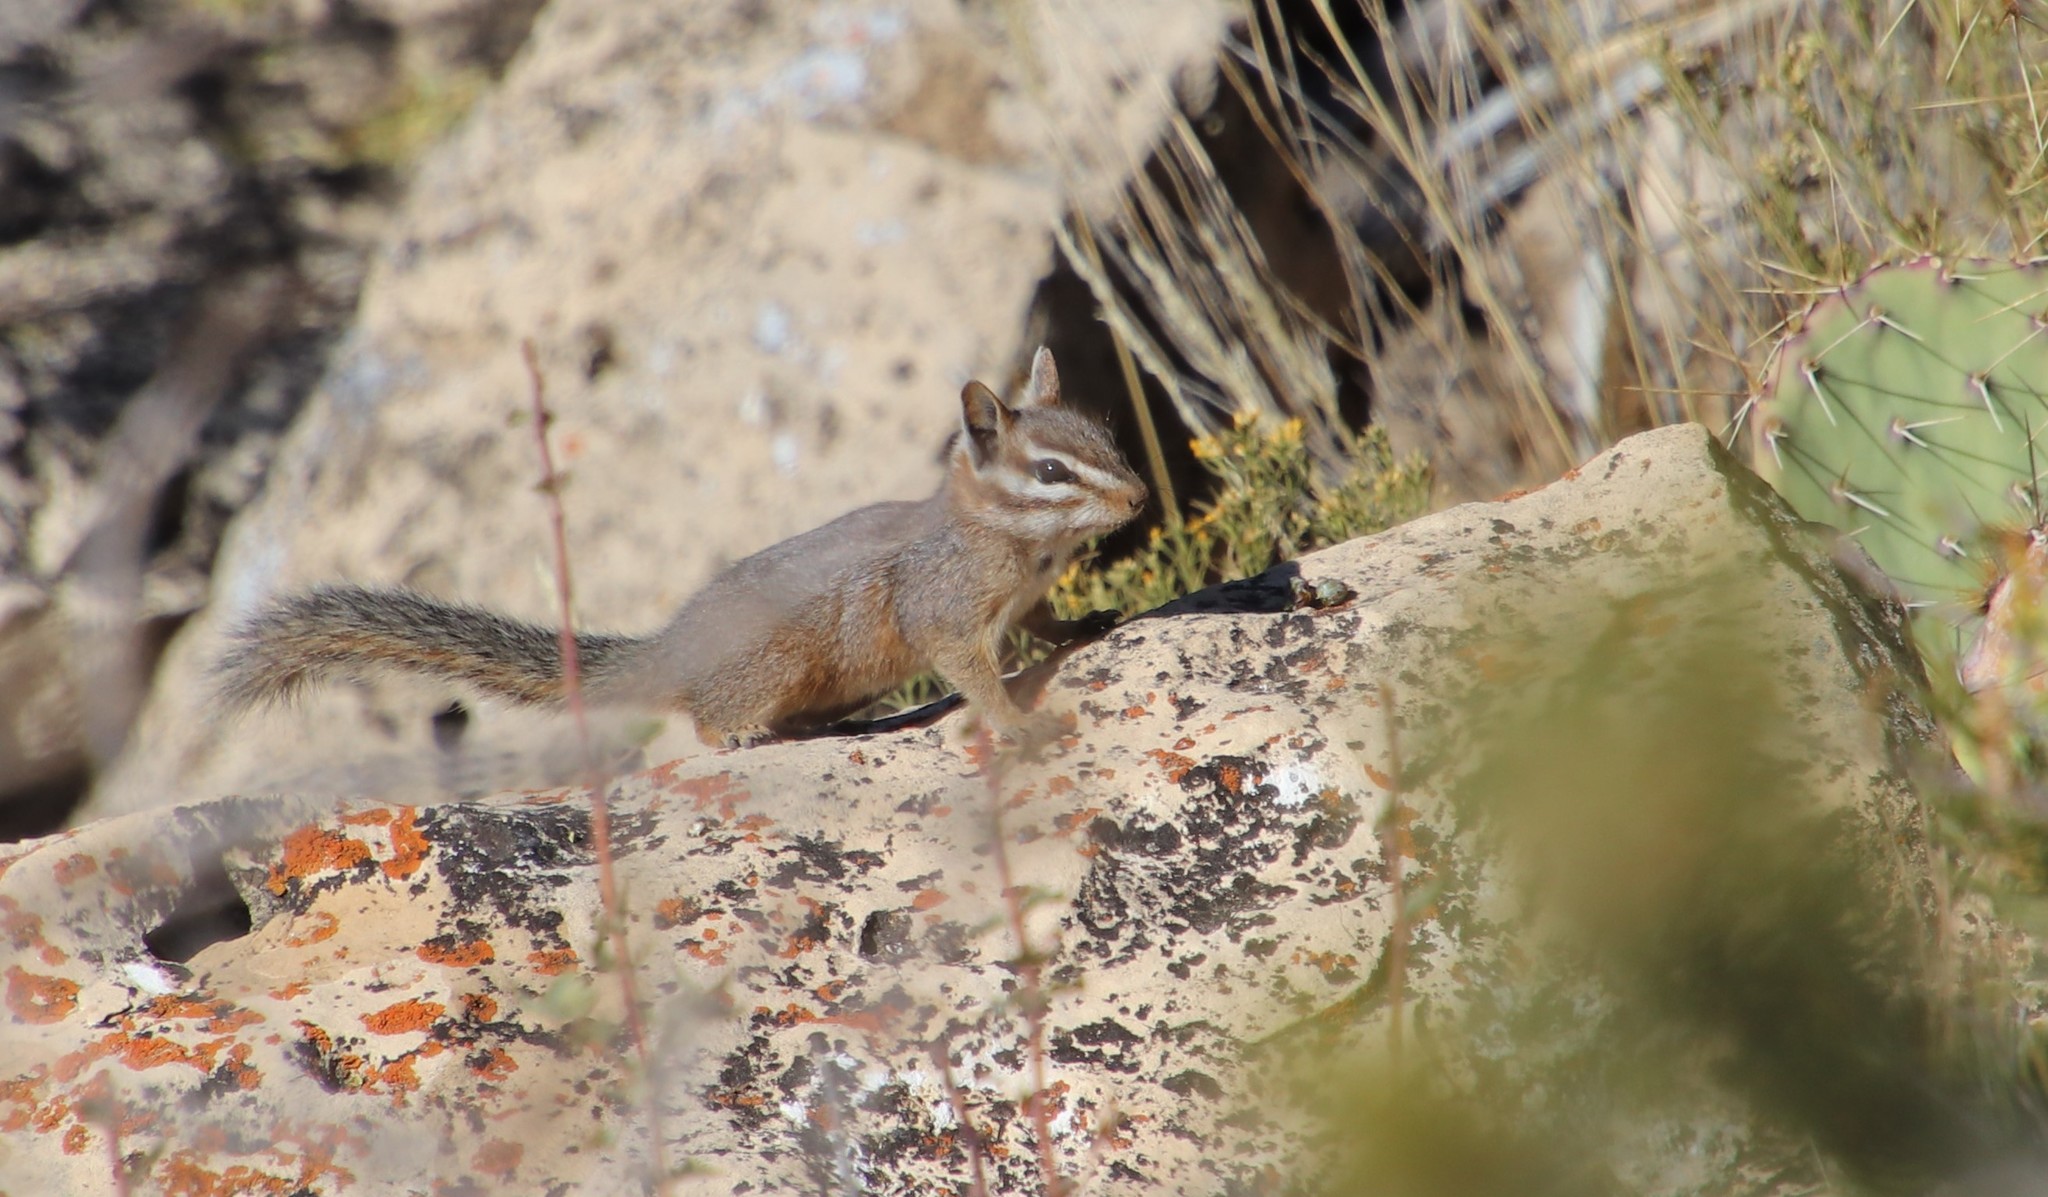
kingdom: Animalia
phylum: Chordata
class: Mammalia
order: Rodentia
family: Sciuridae
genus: Tamias
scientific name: Tamias dorsalis
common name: Cliff chipmunk
